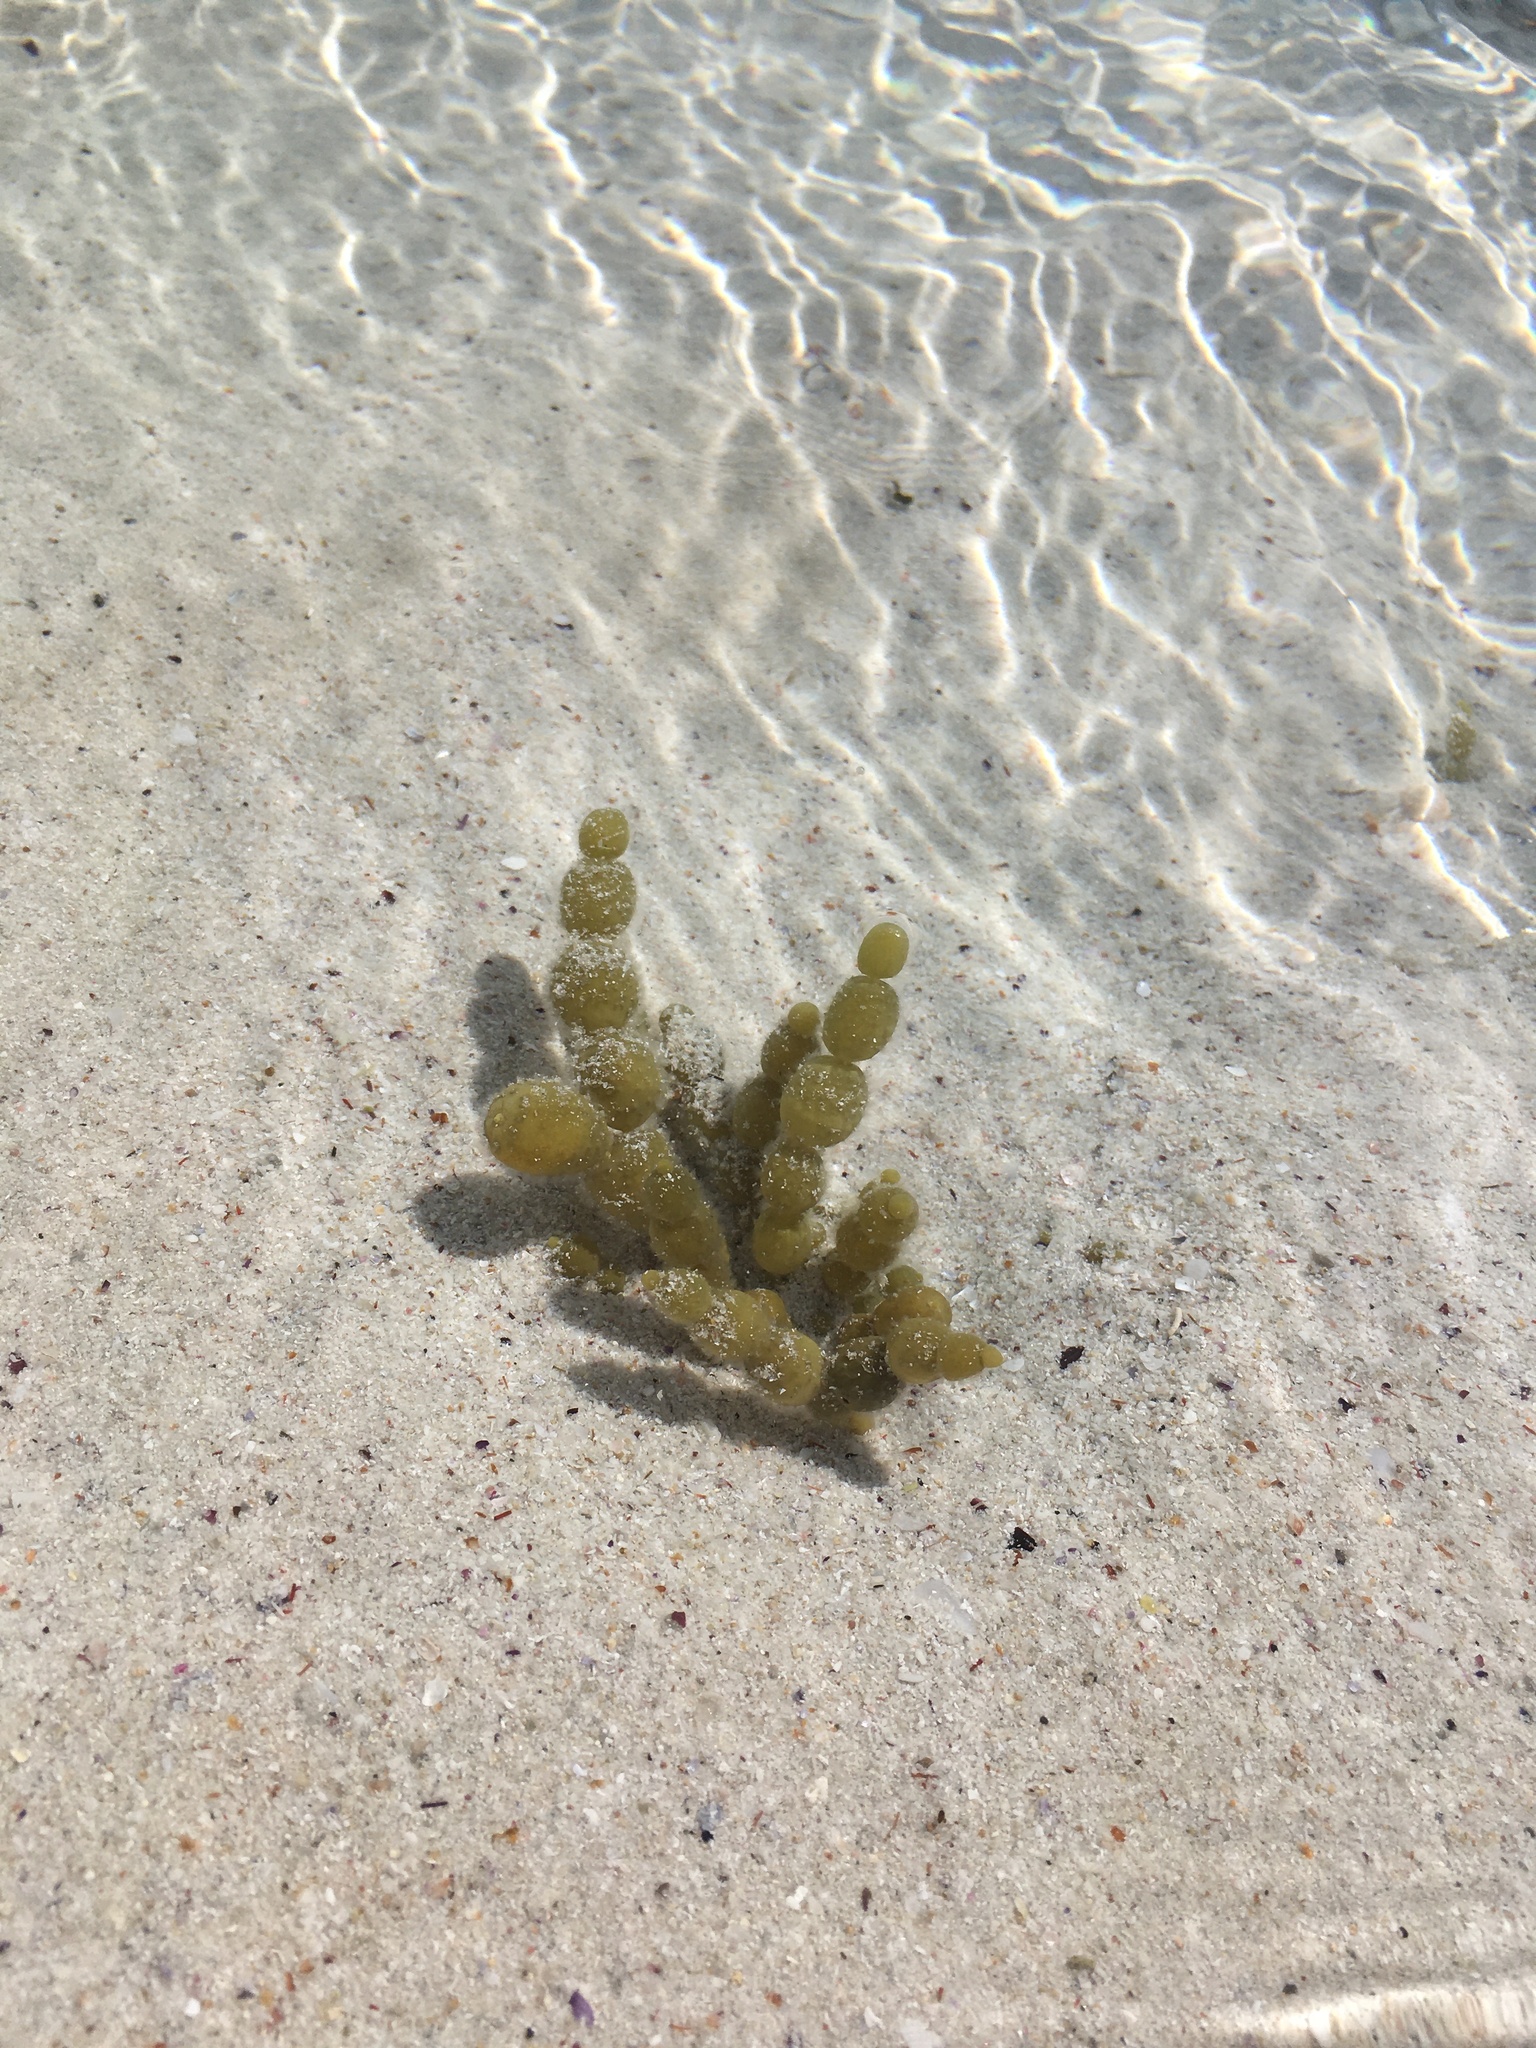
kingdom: Chromista
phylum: Ochrophyta
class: Phaeophyceae
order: Fucales
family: Hormosiraceae
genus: Hormosira
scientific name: Hormosira banksii
